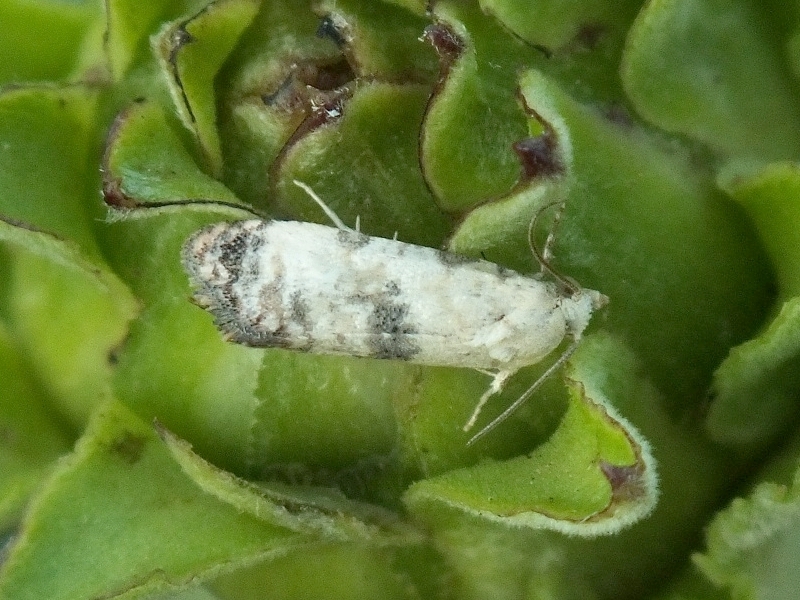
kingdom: Animalia
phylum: Arthropoda
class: Insecta
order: Lepidoptera
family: Tortricidae
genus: Cochylis
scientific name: Cochylis Pontoturania posterana
